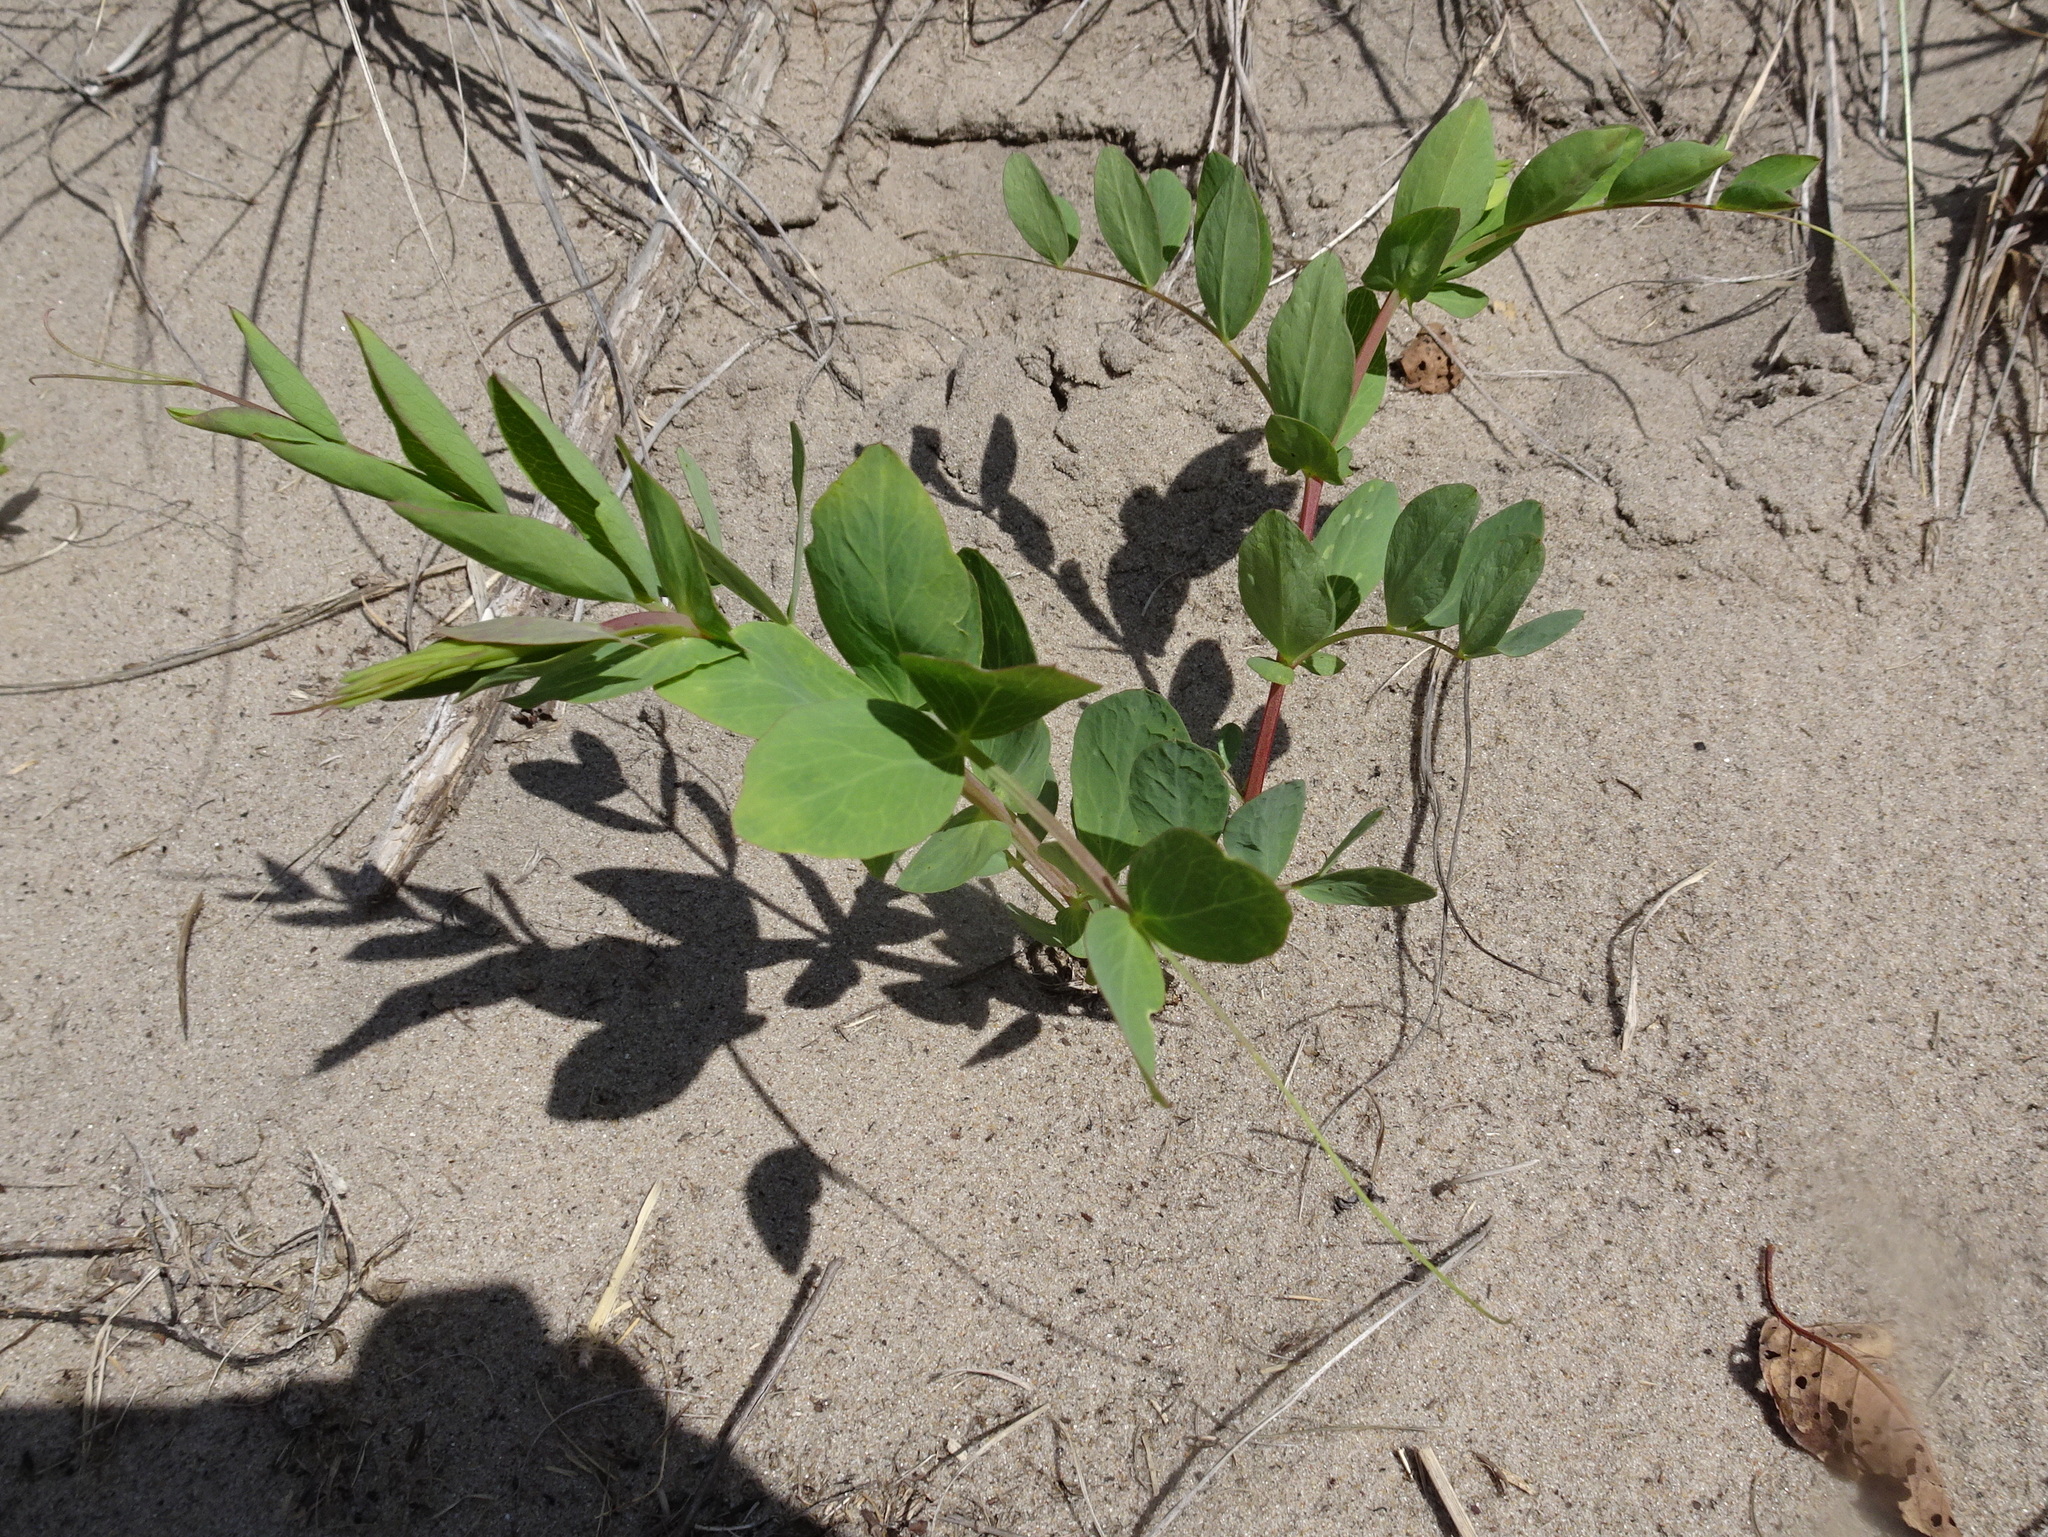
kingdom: Plantae
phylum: Tracheophyta
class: Magnoliopsida
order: Fabales
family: Fabaceae
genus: Lathyrus
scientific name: Lathyrus japonicus
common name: Sea pea
